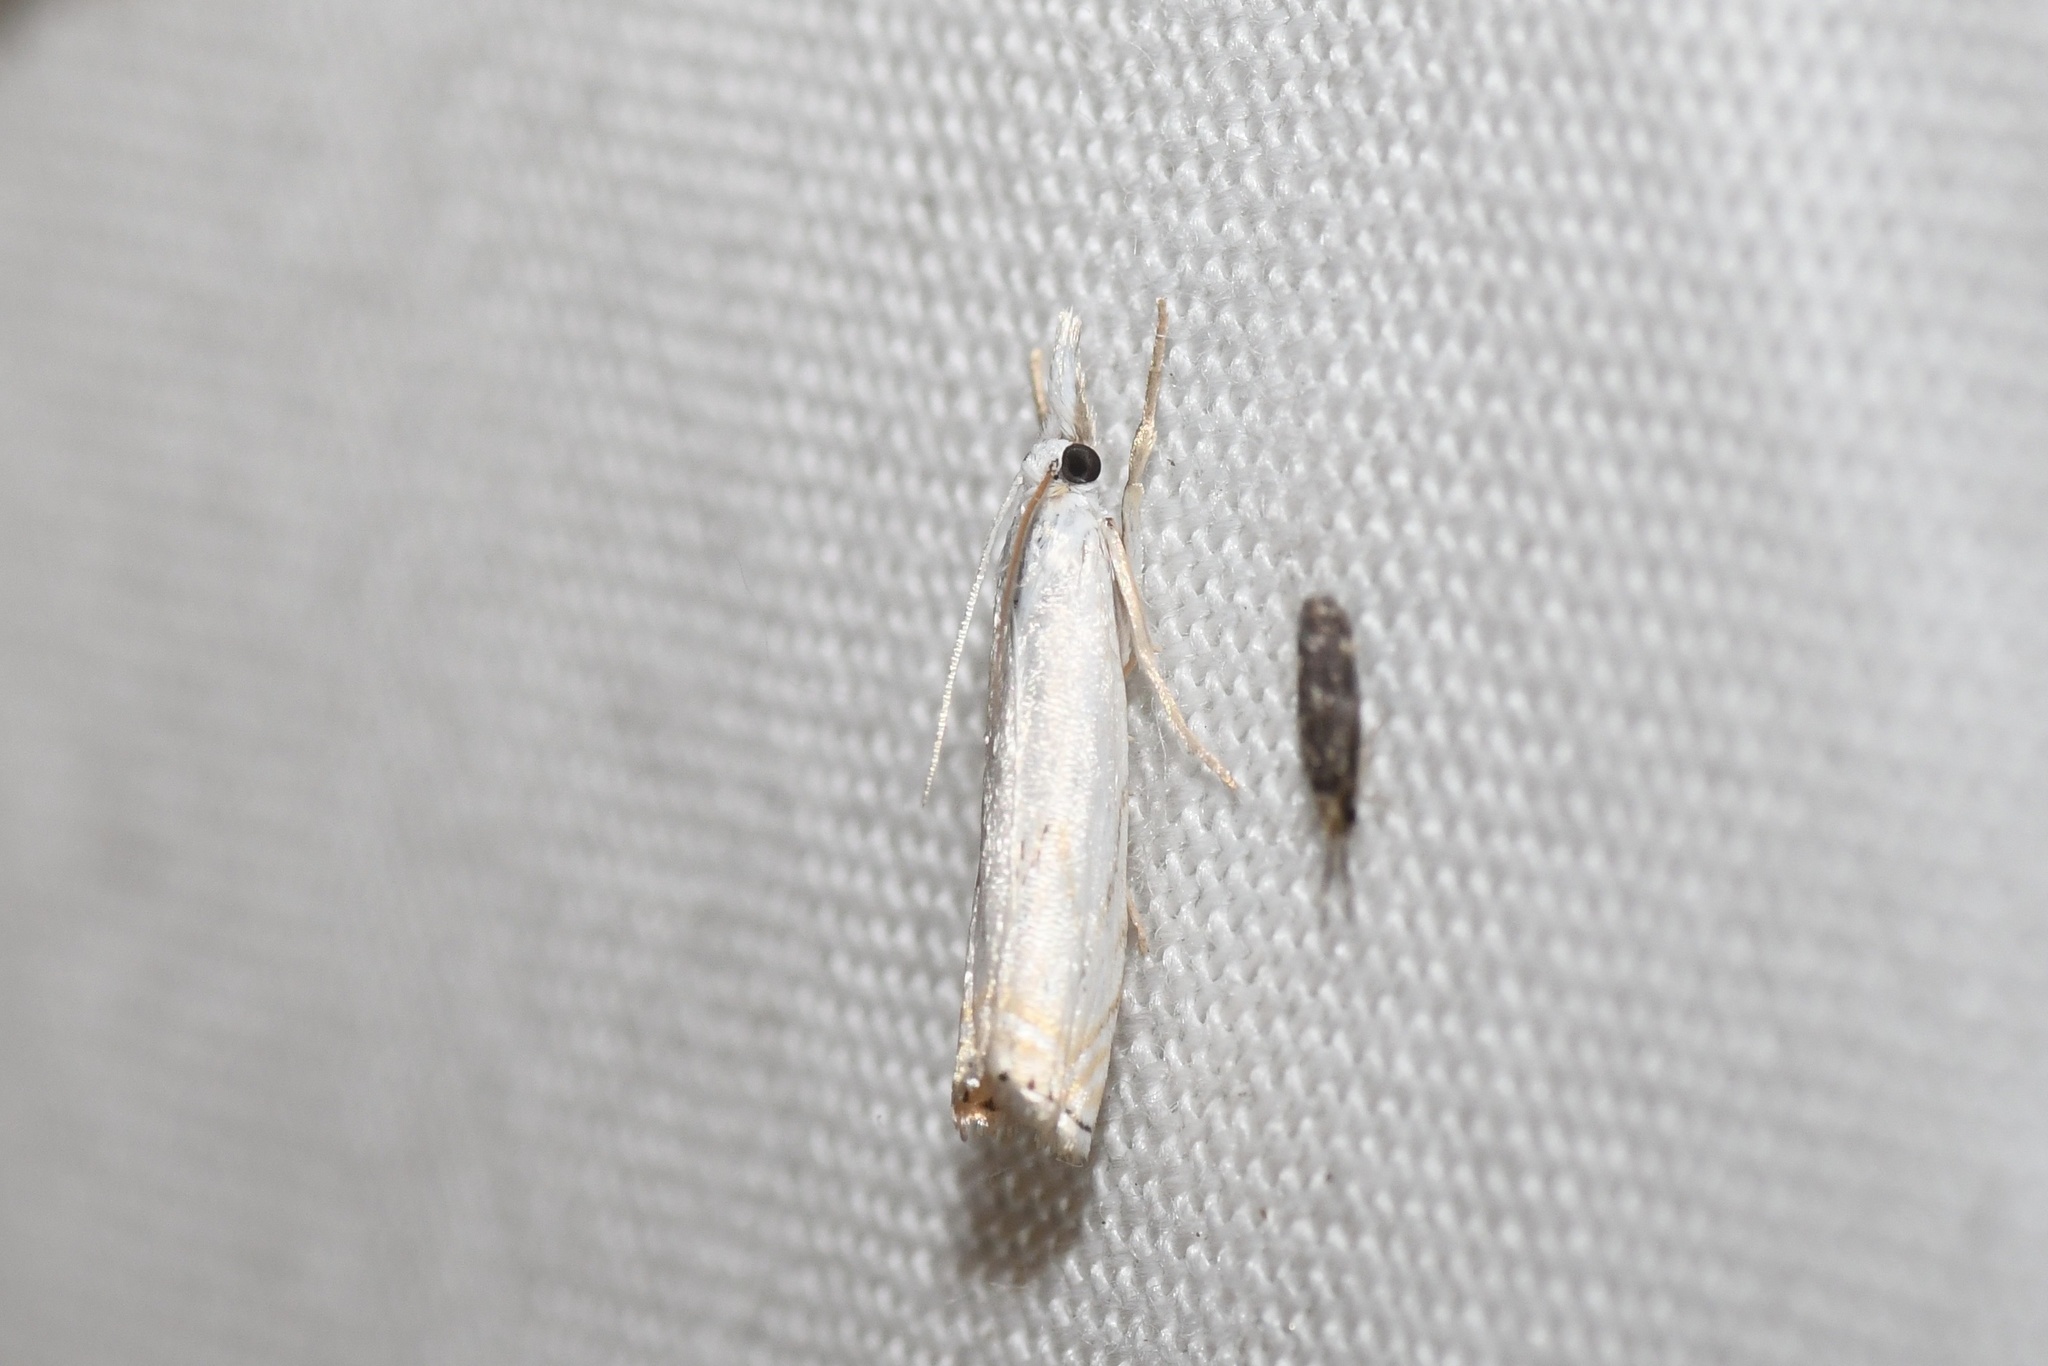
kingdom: Animalia
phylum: Arthropoda
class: Insecta
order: Lepidoptera
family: Crambidae
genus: Crambus
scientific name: Crambus albellus
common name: Small white grass-veneer
